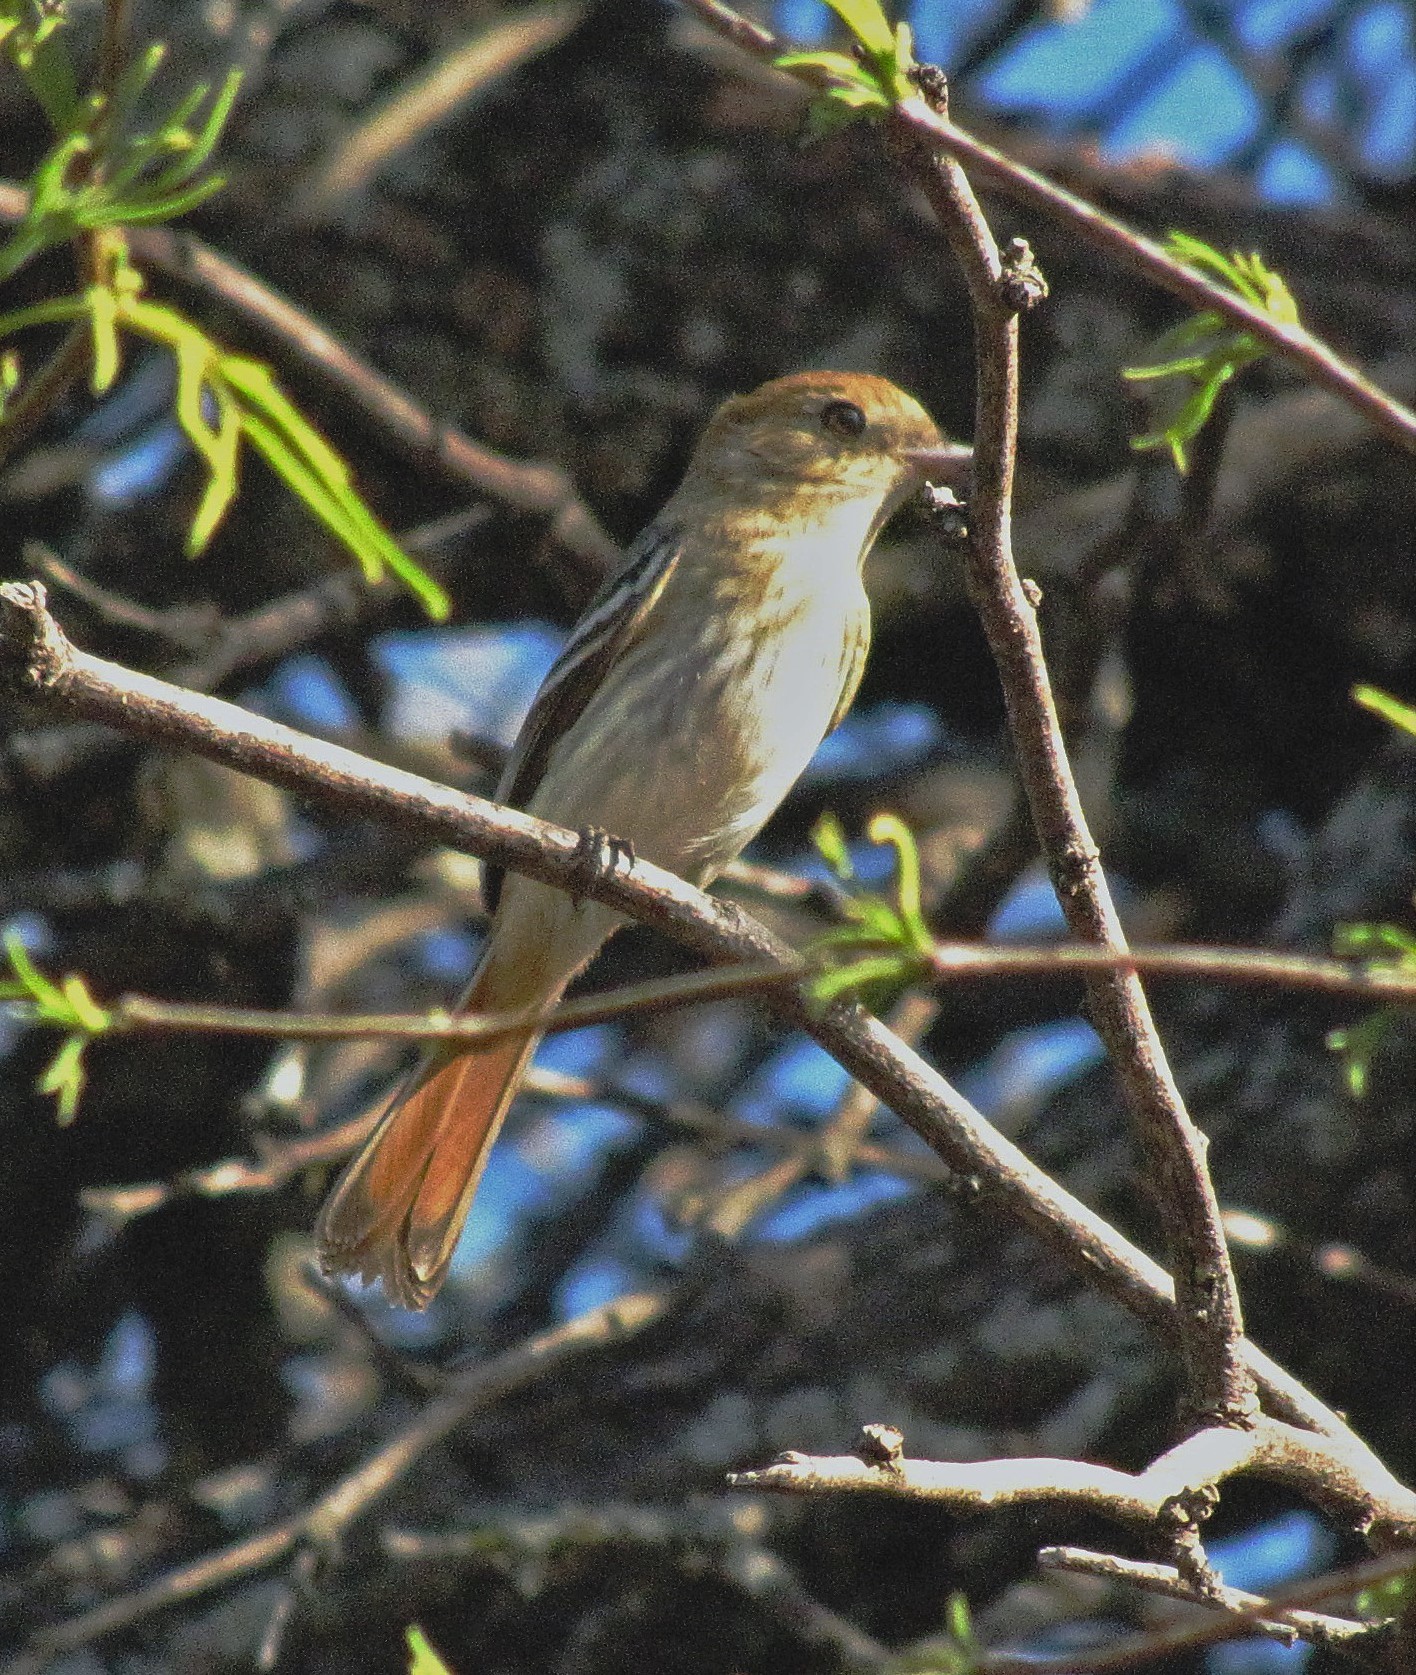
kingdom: Animalia
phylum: Chordata
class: Aves
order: Passeriformes
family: Tyrannidae
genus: Knipolegus
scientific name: Knipolegus striaticeps
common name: Cinereous tyrant
